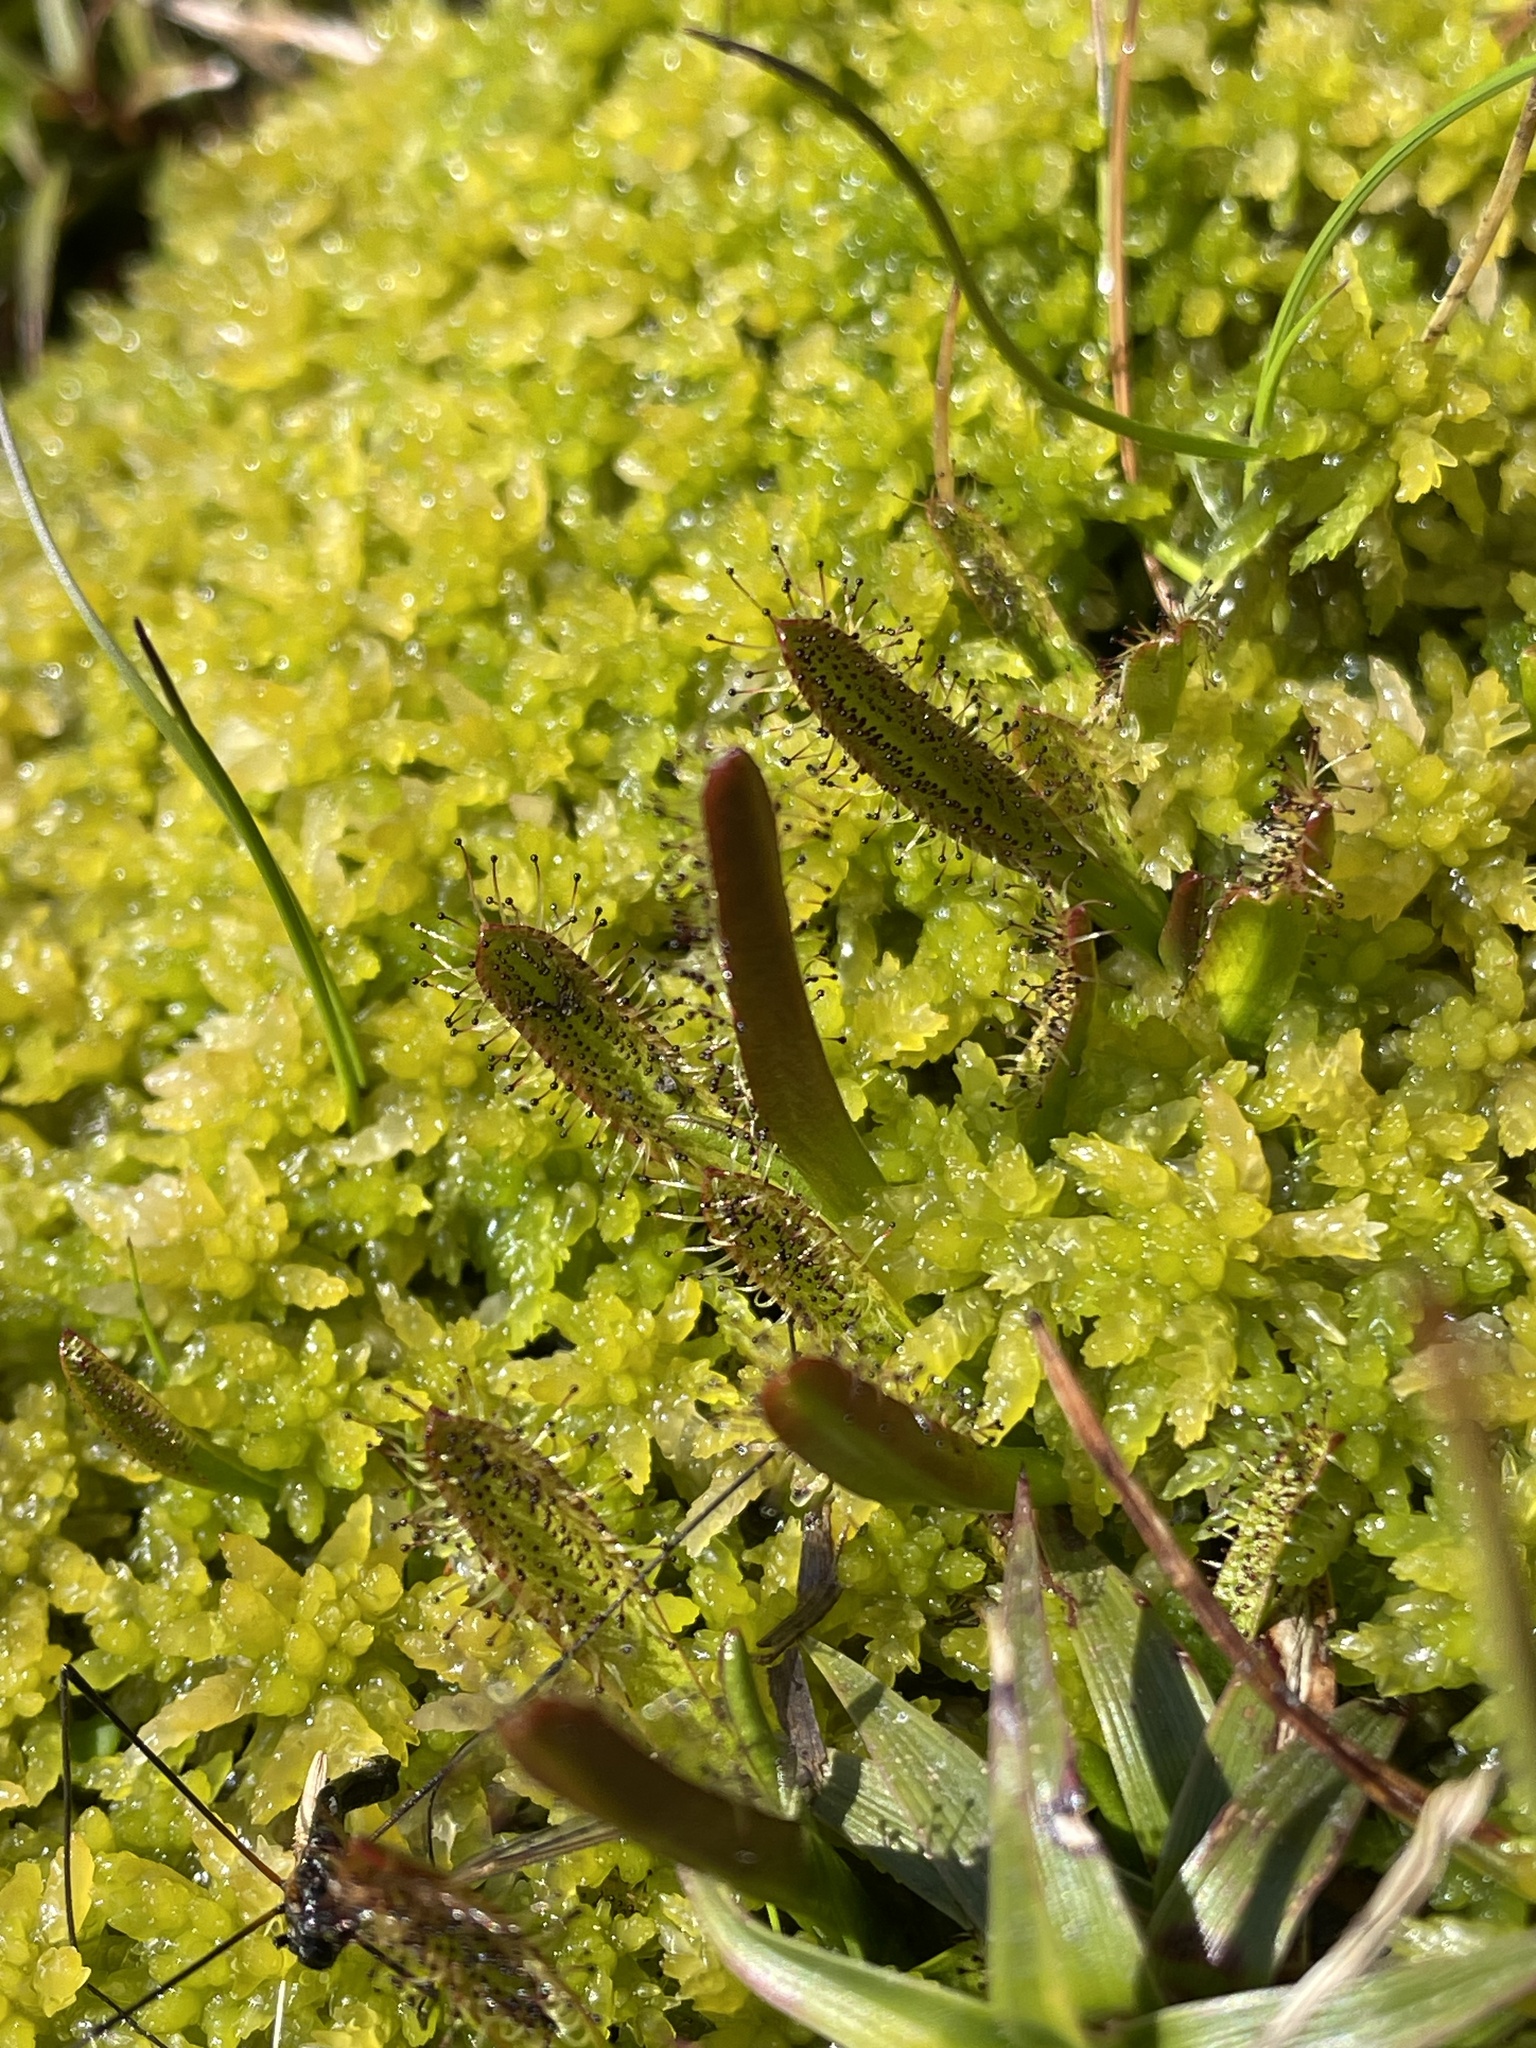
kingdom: Plantae
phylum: Tracheophyta
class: Magnoliopsida
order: Caryophyllales
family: Droseraceae
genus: Drosera
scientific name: Drosera arcturi
